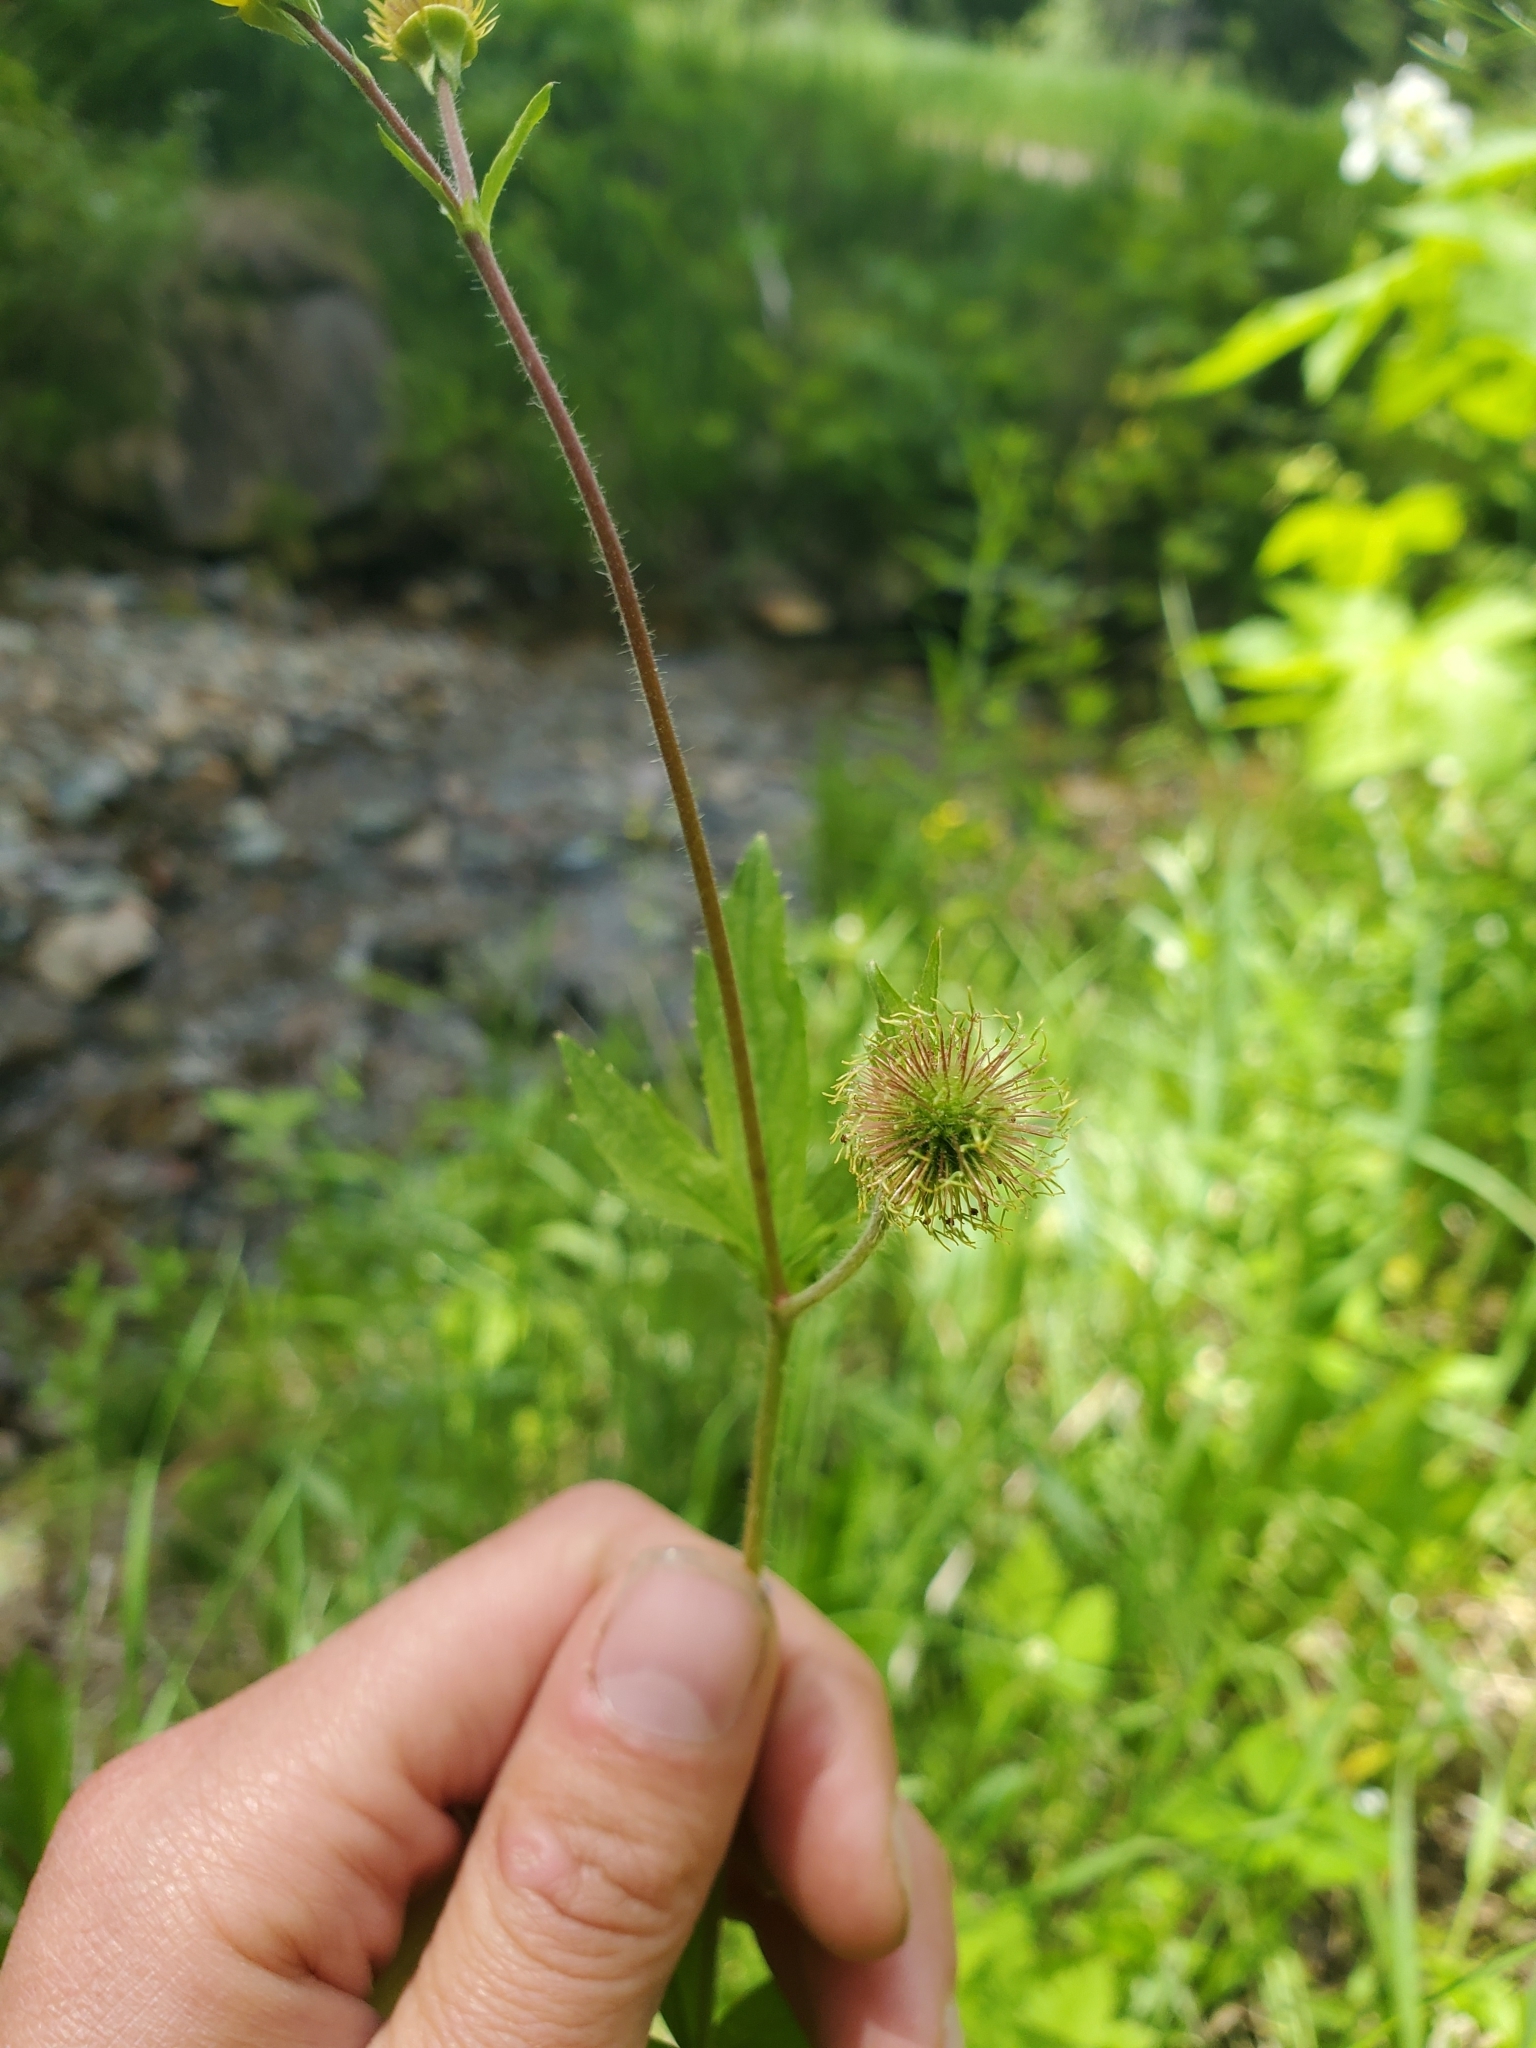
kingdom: Plantae
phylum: Tracheophyta
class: Magnoliopsida
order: Rosales
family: Rosaceae
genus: Geum
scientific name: Geum macrophyllum
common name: Large-leaved avens
